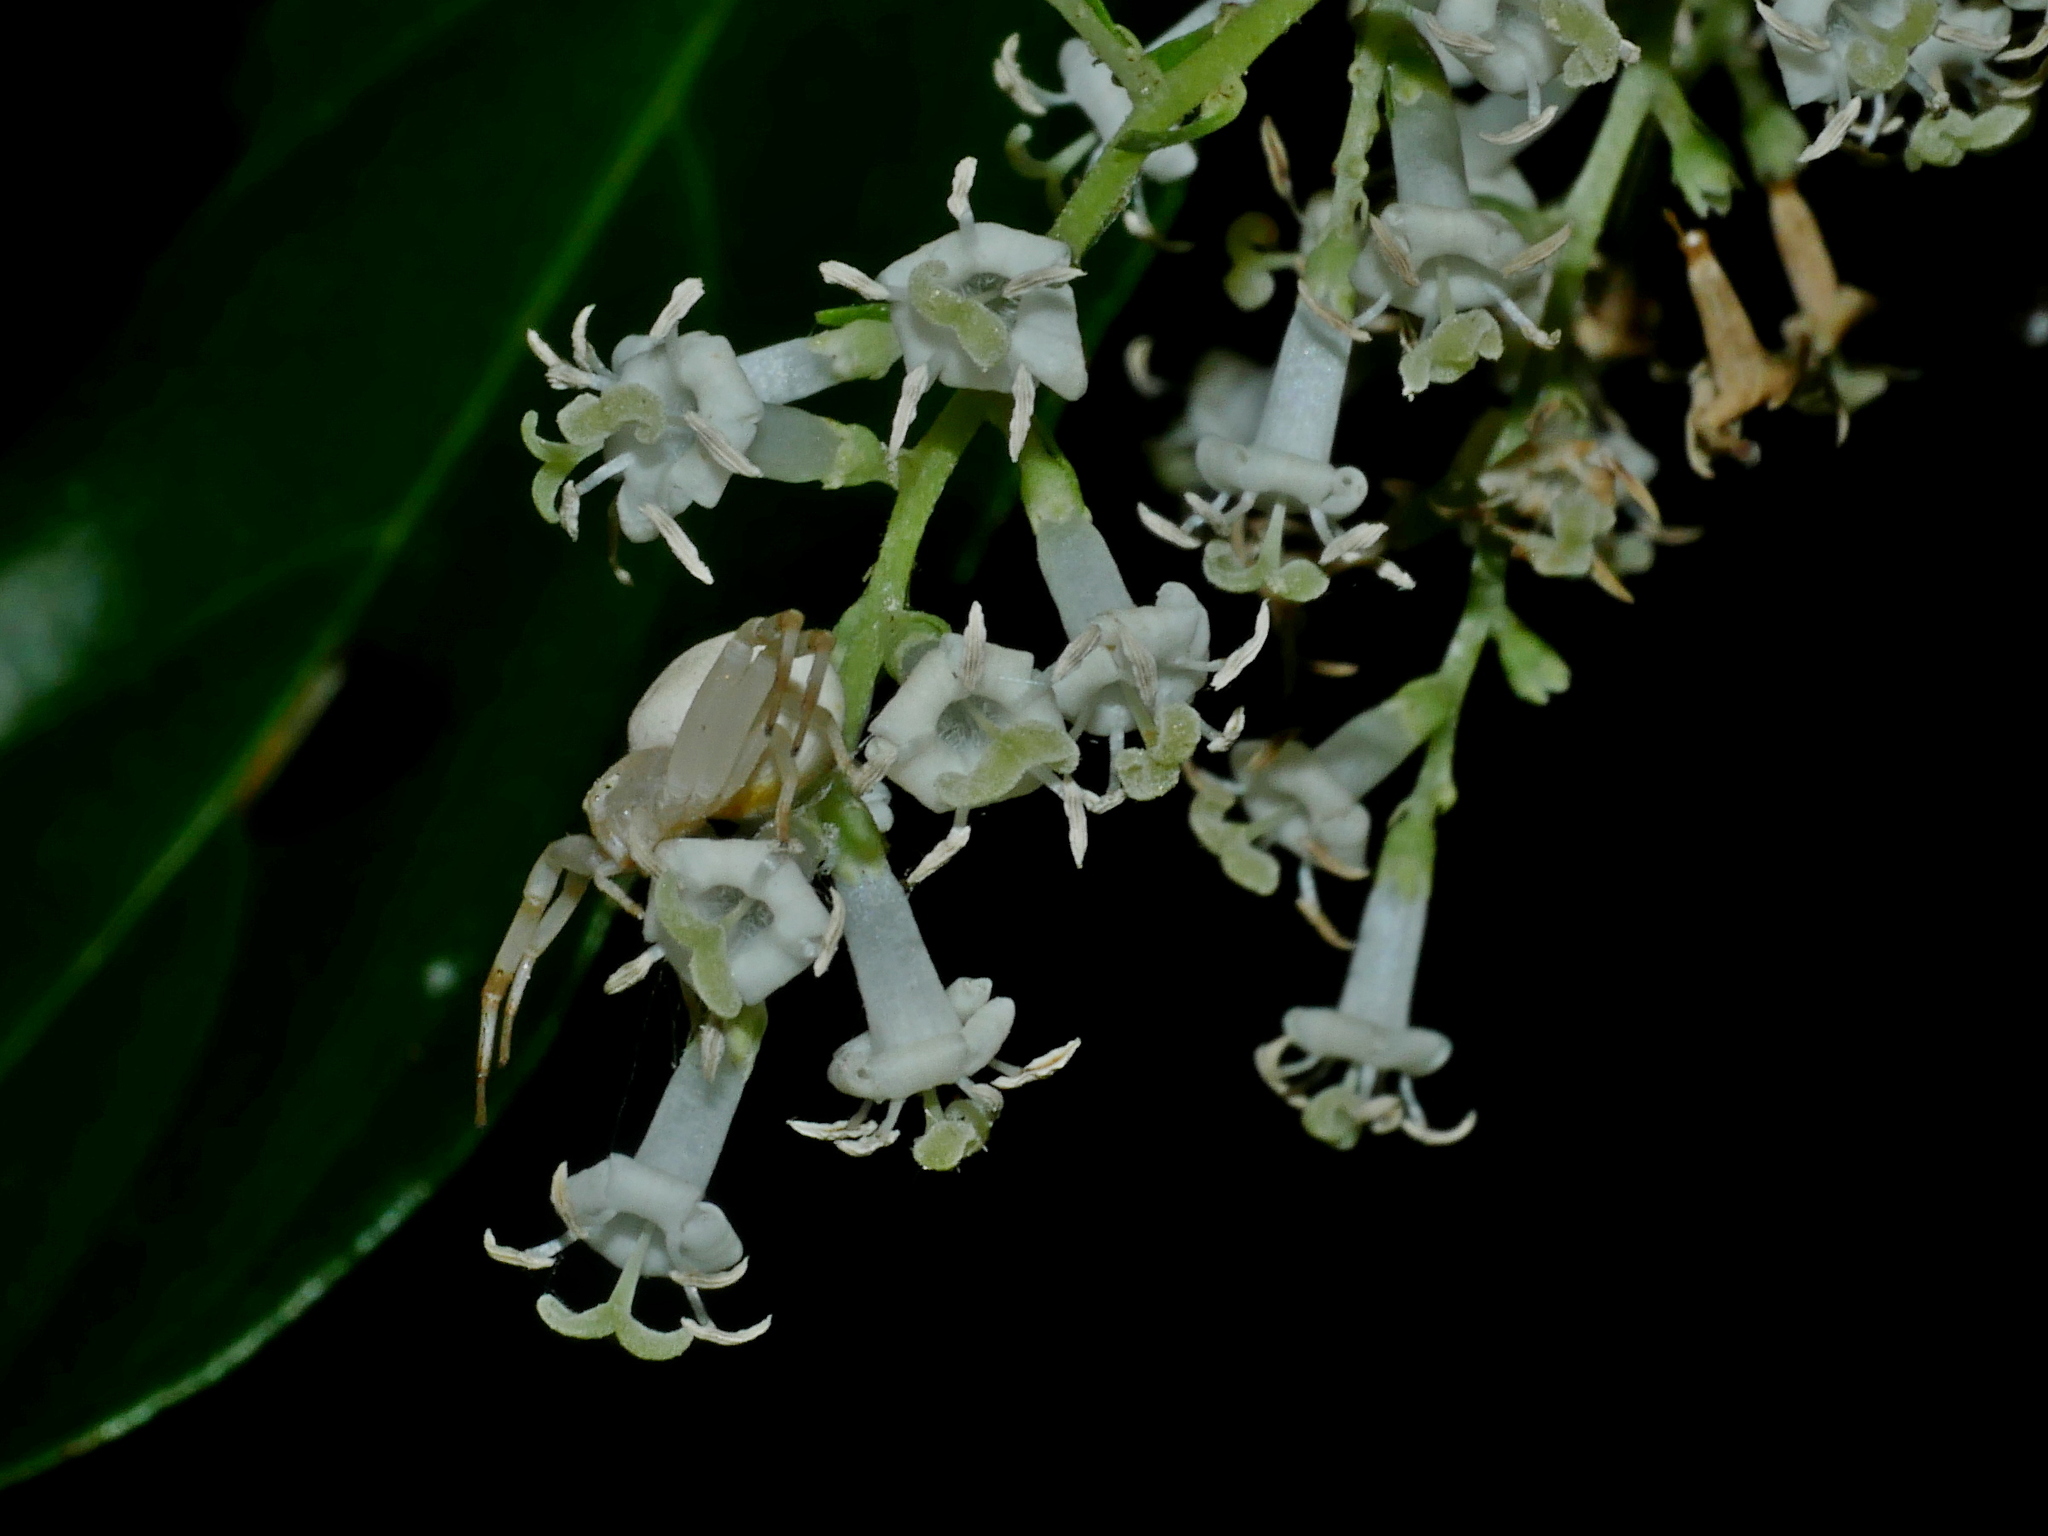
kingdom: Animalia
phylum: Arthropoda
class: Arachnida
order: Araneae
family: Thomisidae
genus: Misumena
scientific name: Misumena vatia
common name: Goldenrod crab spider
